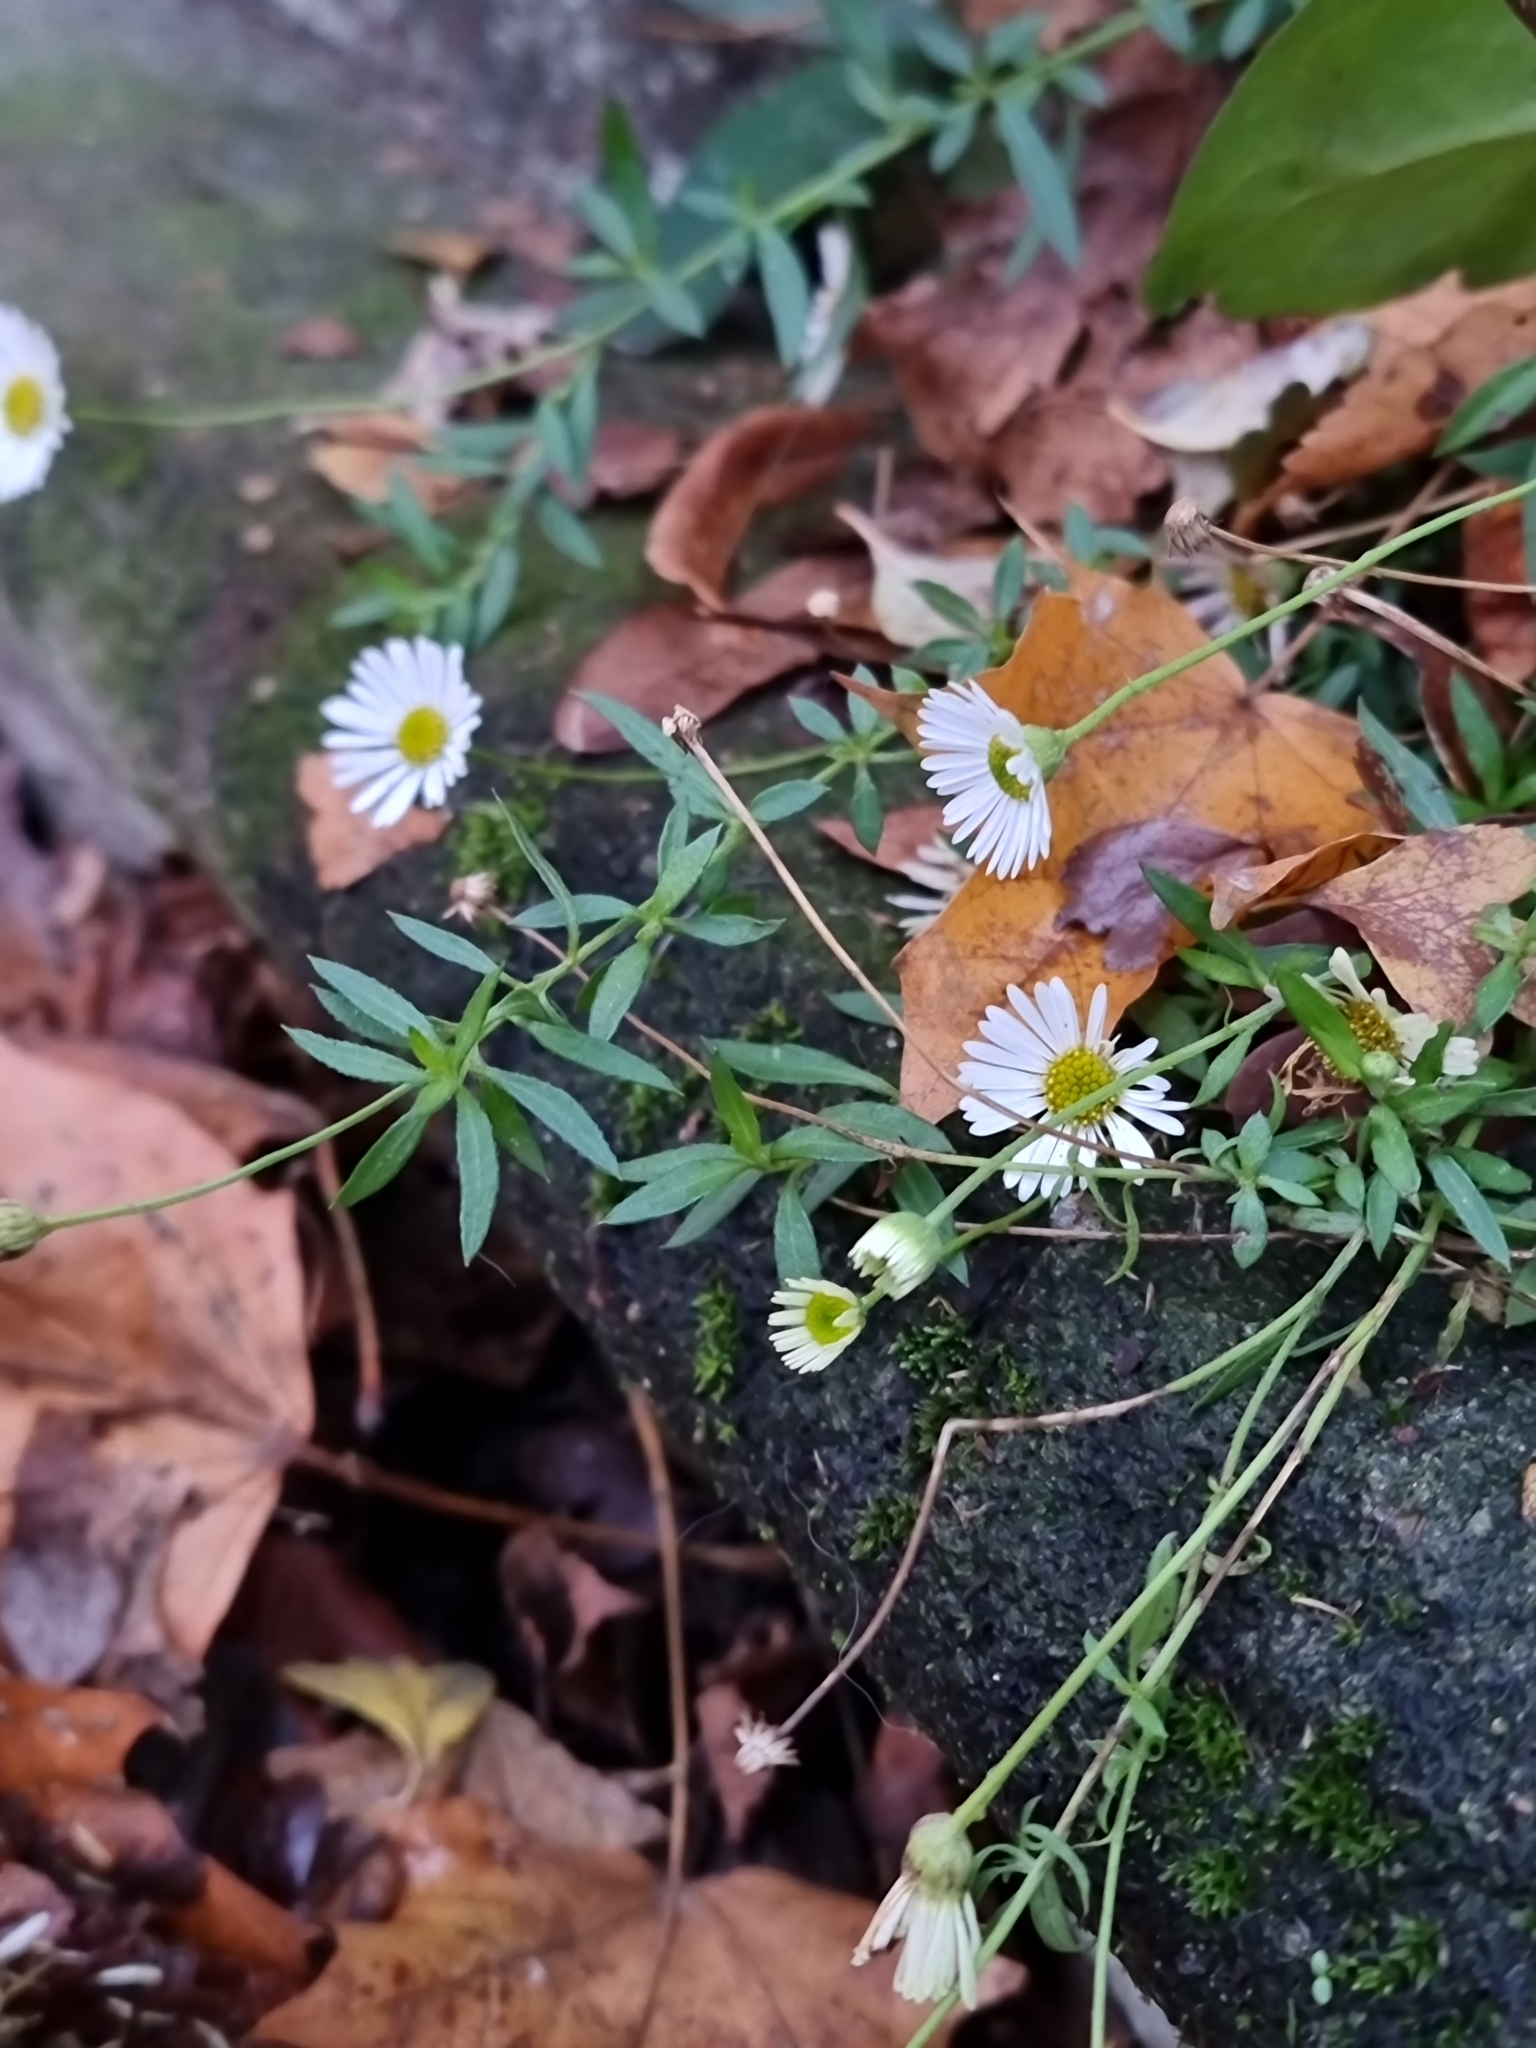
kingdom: Plantae
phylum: Tracheophyta
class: Magnoliopsida
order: Asterales
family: Asteraceae
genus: Erigeron
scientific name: Erigeron karvinskianus
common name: Mexican fleabane
